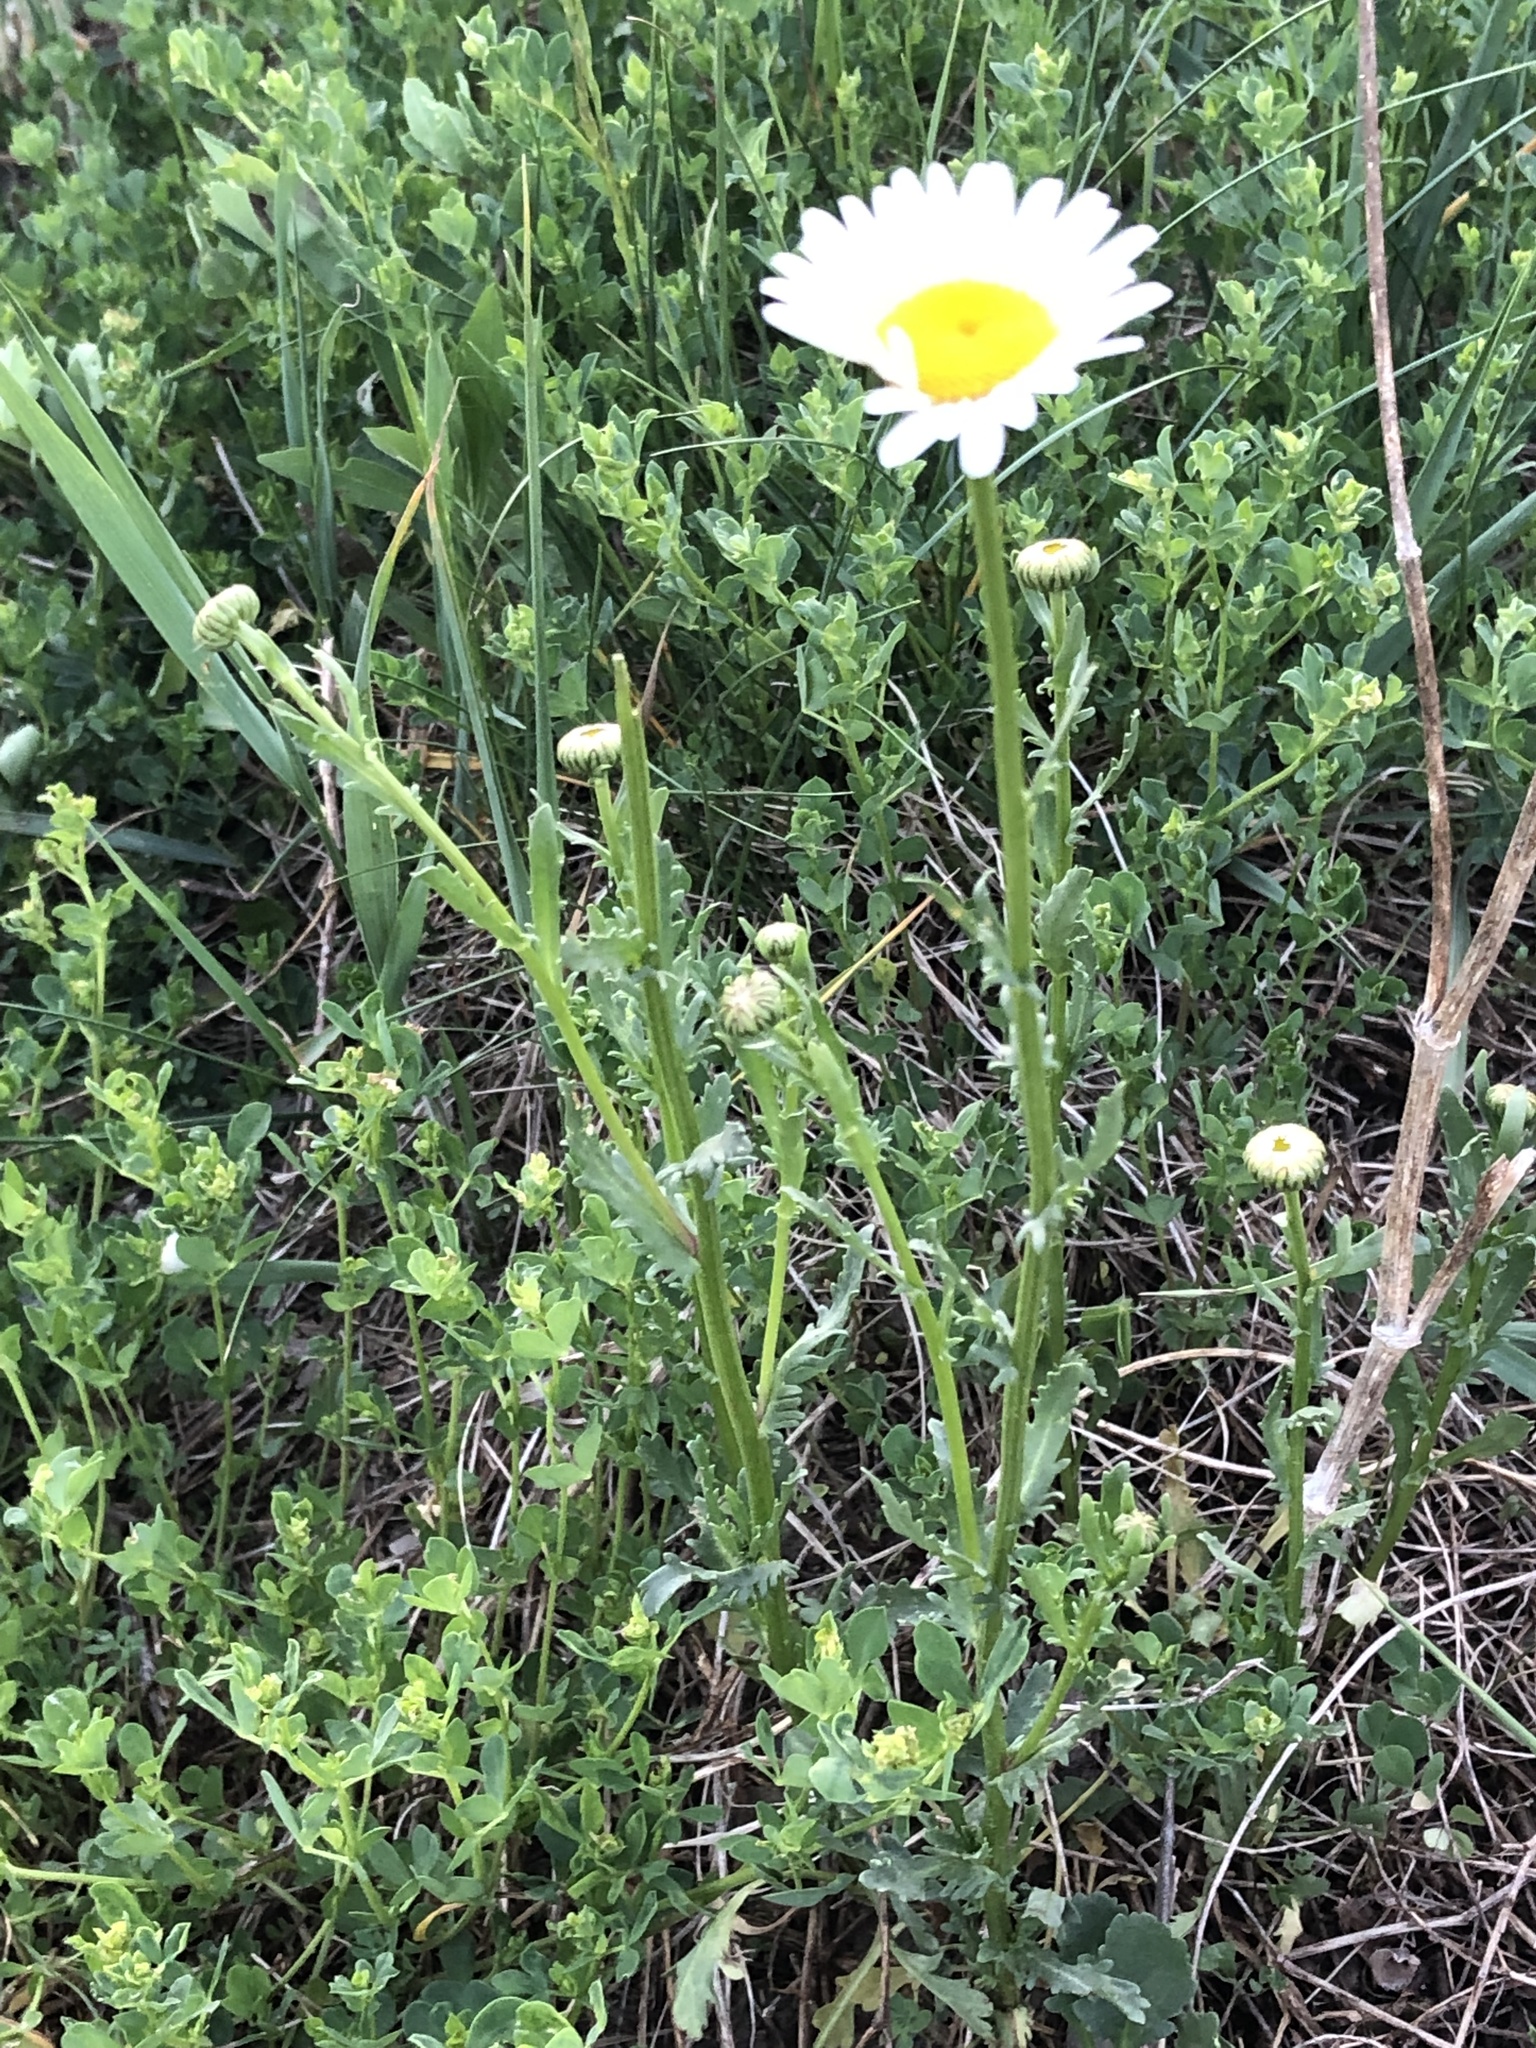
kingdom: Plantae
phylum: Tracheophyta
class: Magnoliopsida
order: Asterales
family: Asteraceae
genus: Leucanthemum
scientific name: Leucanthemum vulgare
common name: Oxeye daisy
